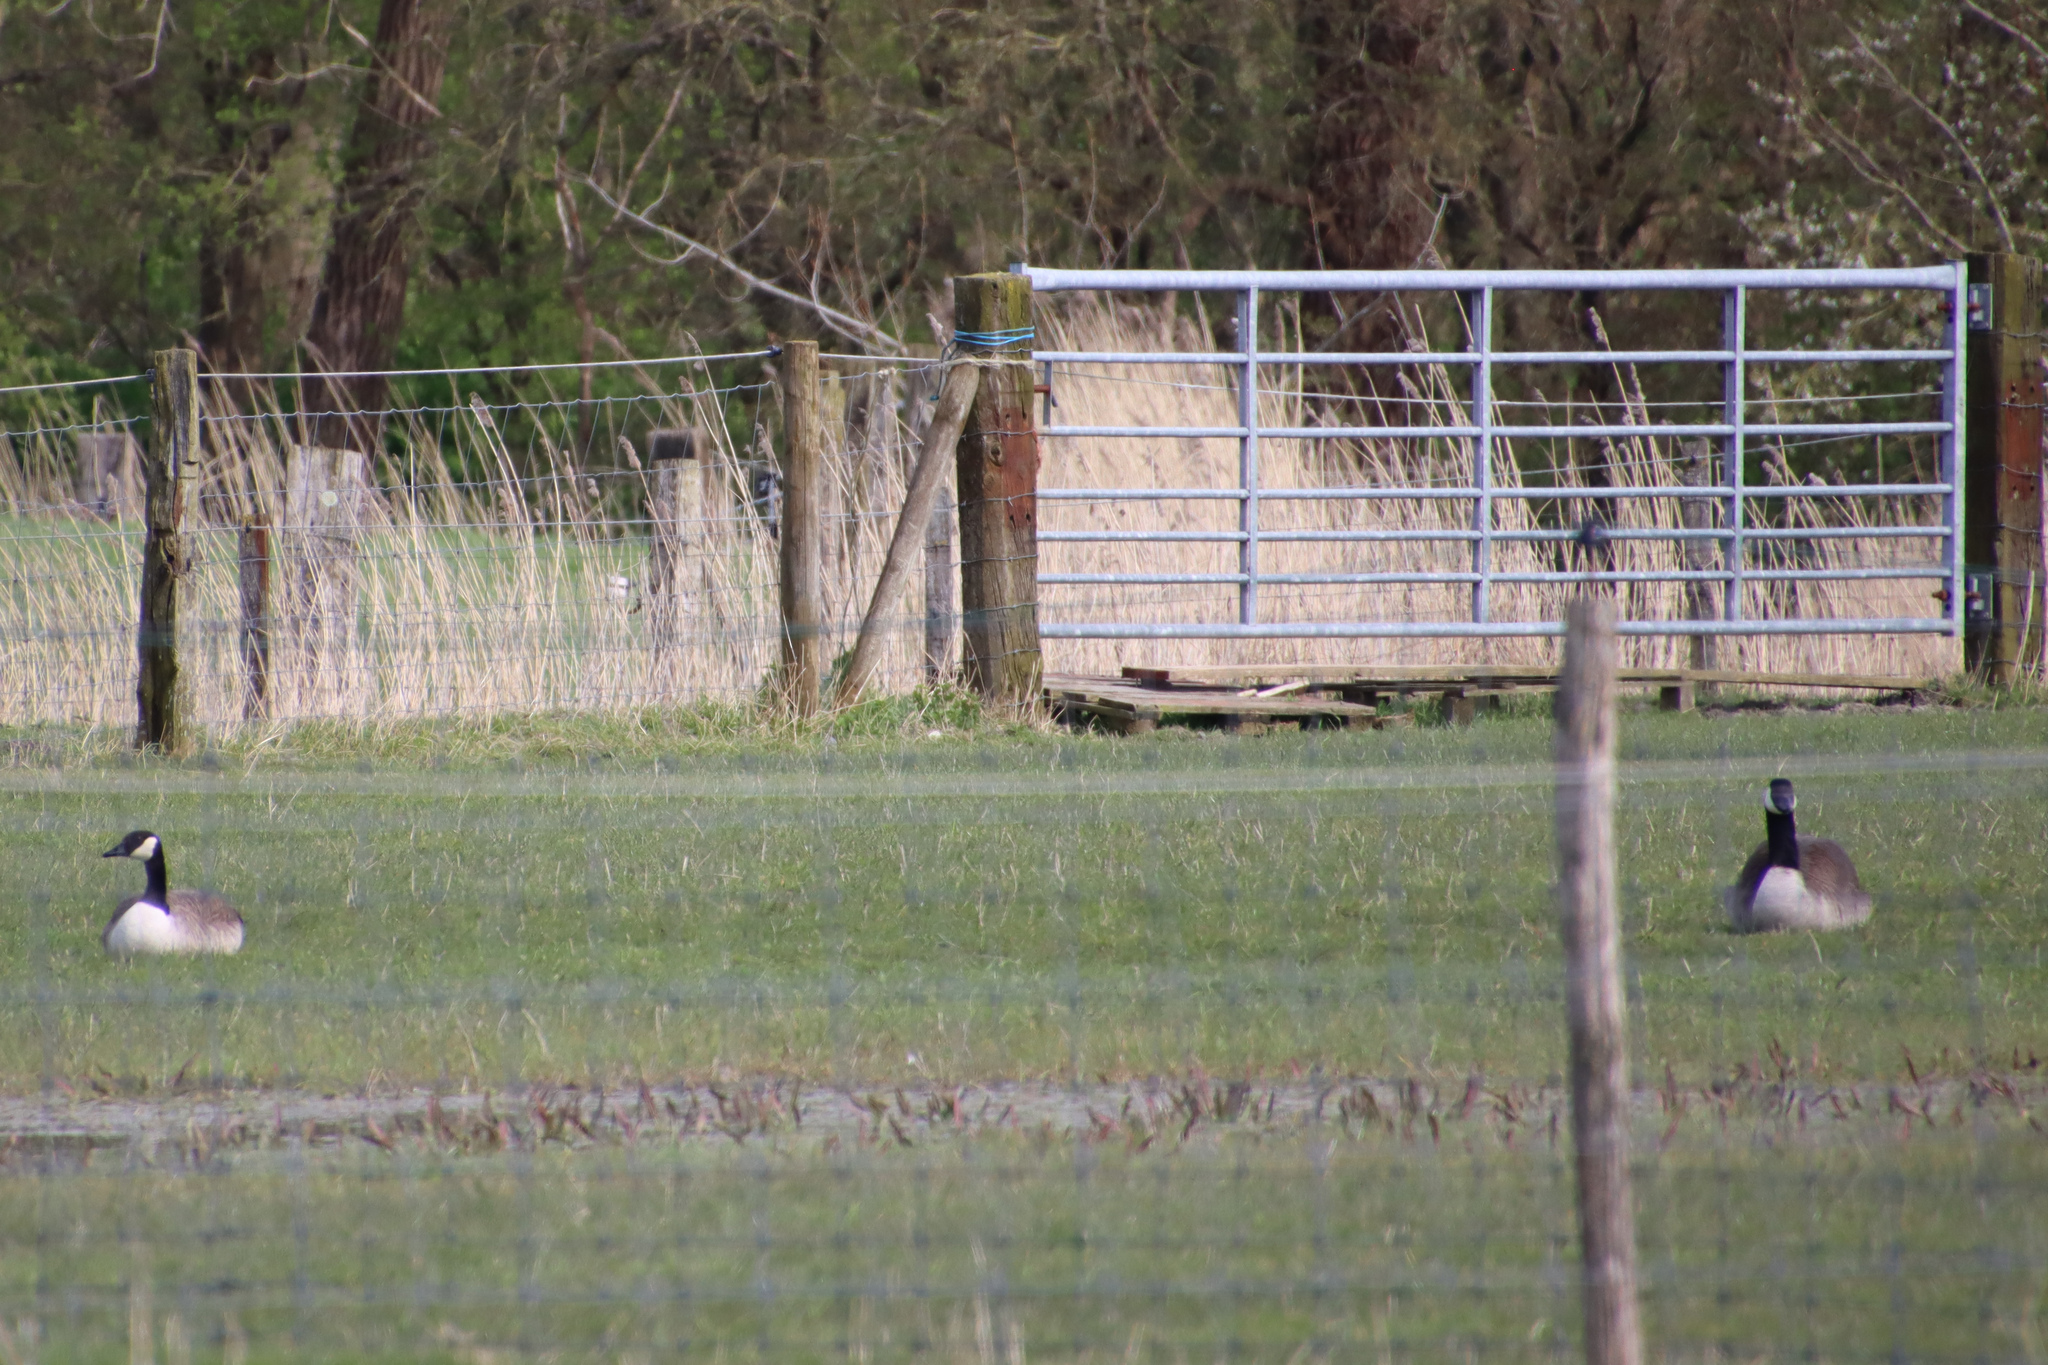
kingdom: Animalia
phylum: Chordata
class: Aves
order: Anseriformes
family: Anatidae
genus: Branta
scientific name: Branta canadensis
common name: Canada goose
